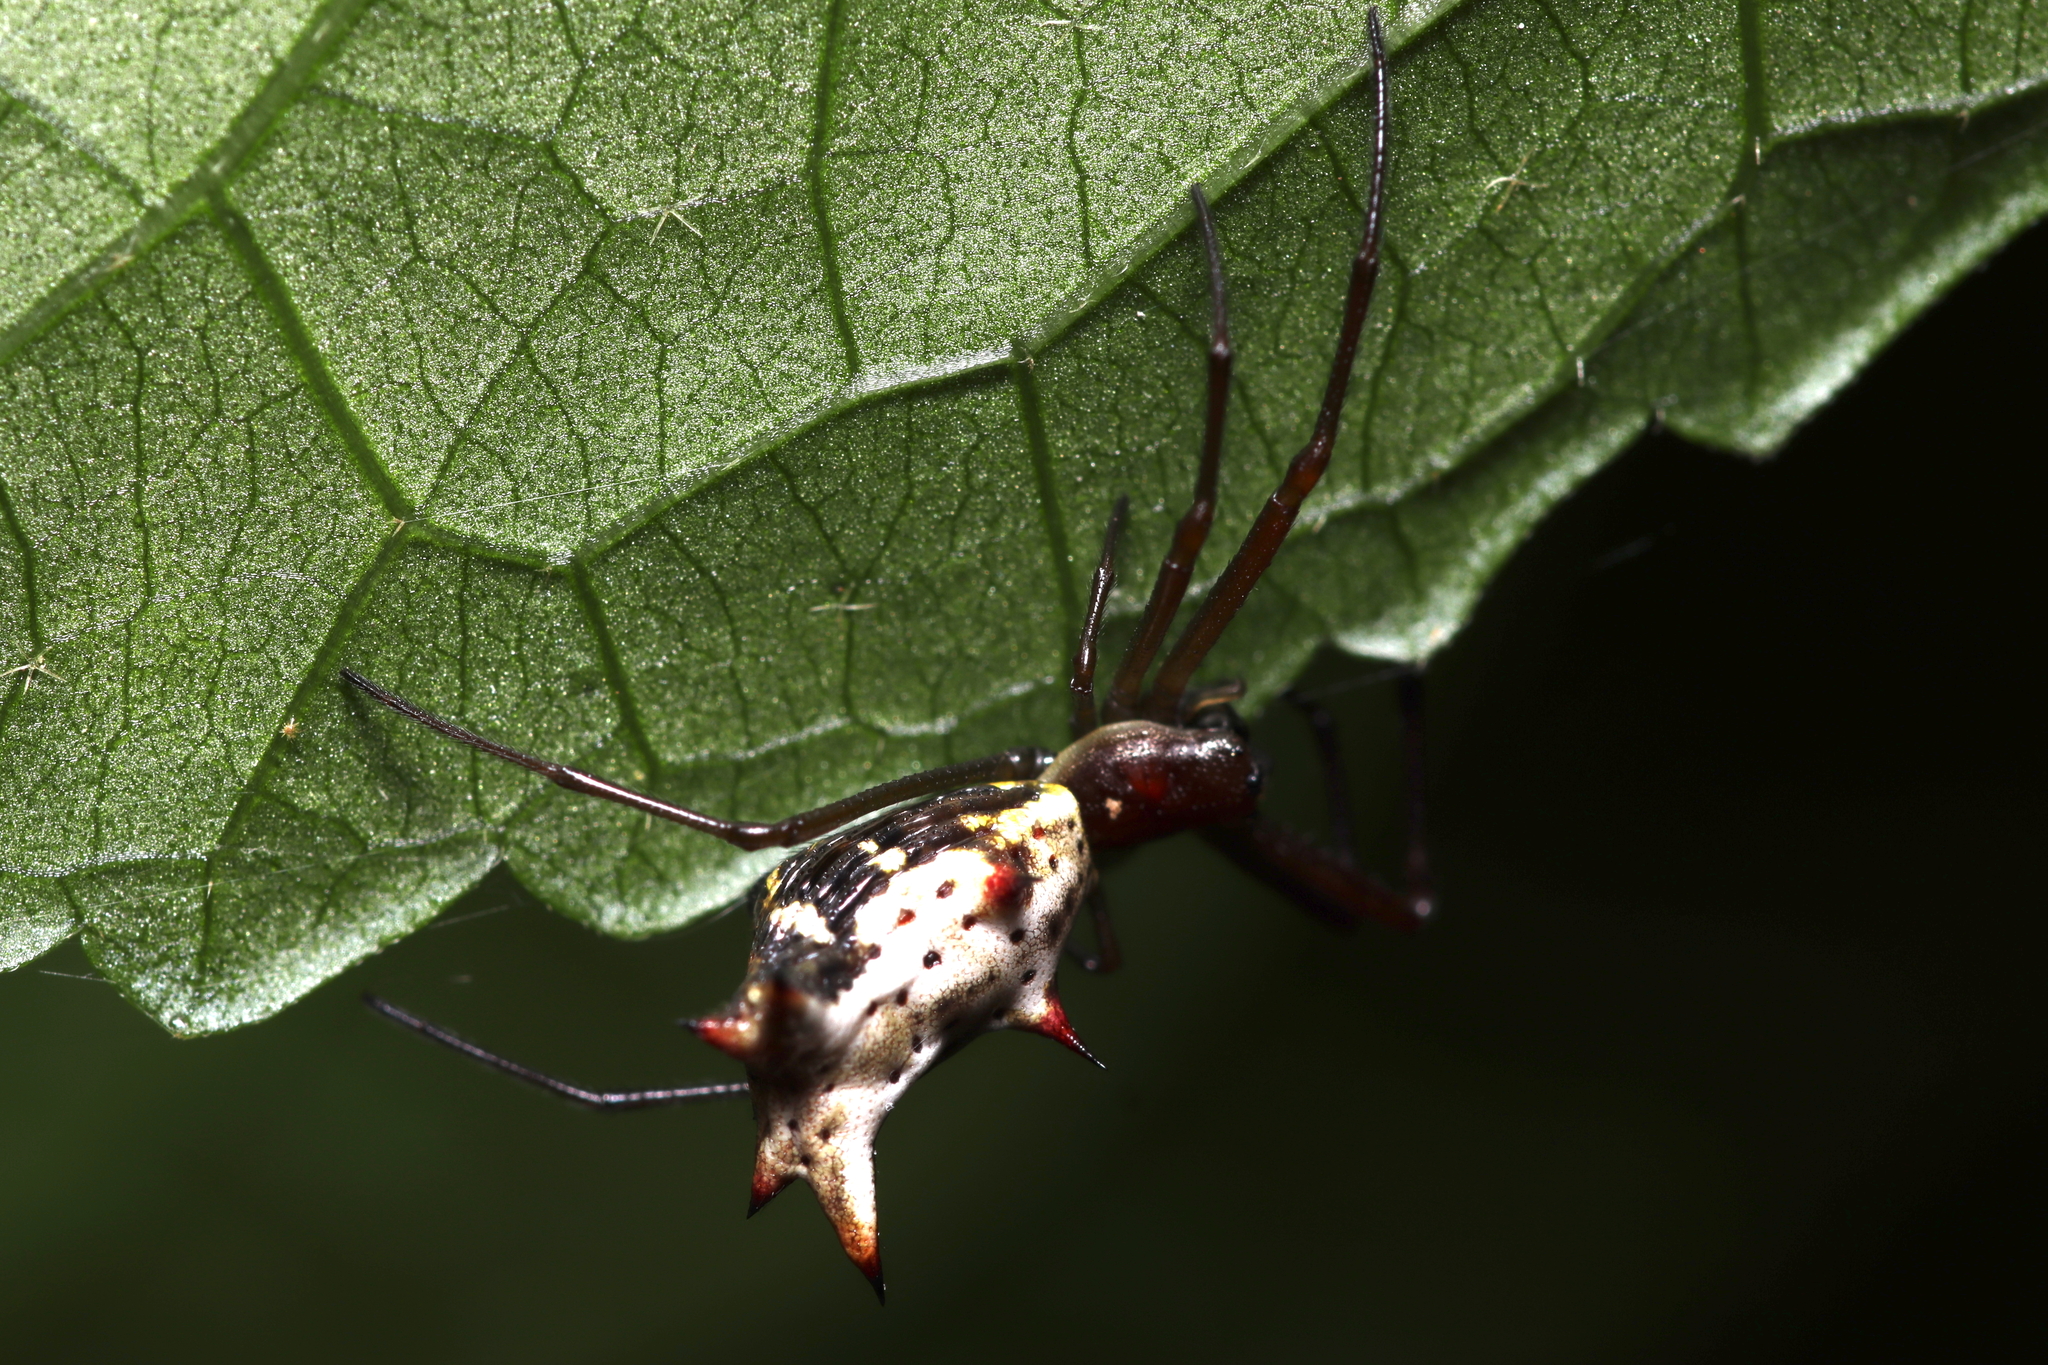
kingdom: Animalia
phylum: Arthropoda
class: Arachnida
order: Araneae
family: Araneidae
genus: Micrathena
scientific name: Micrathena nigrichelis
